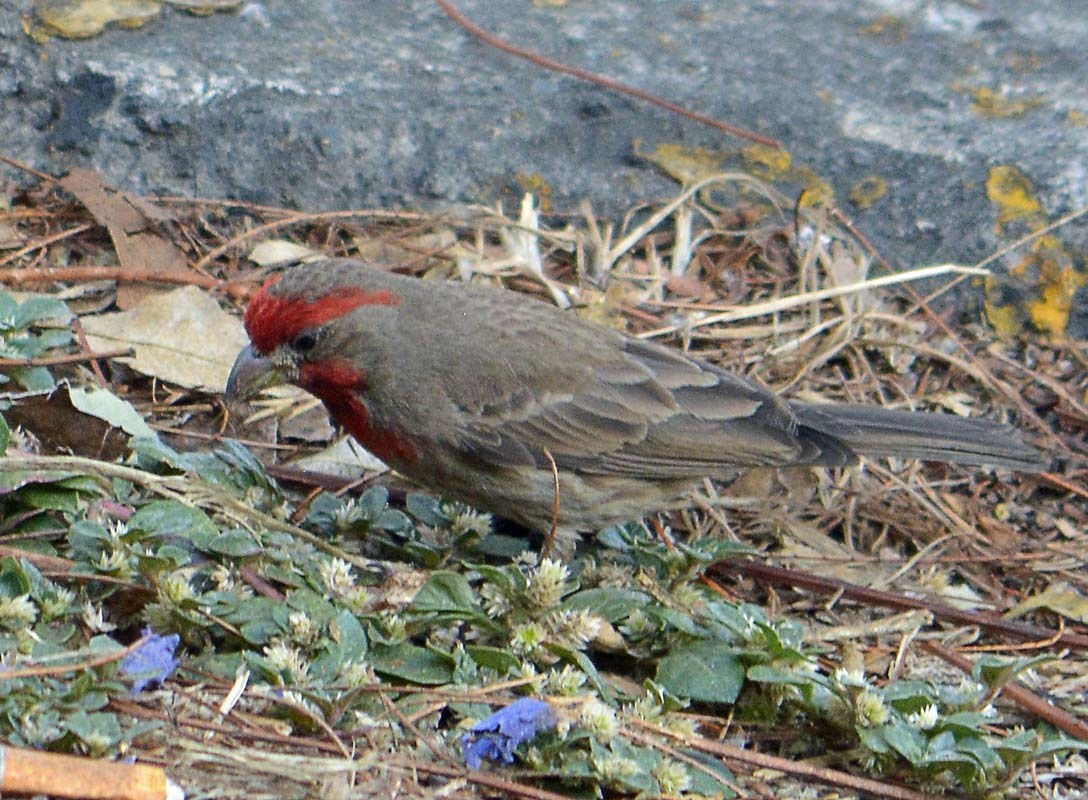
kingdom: Animalia
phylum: Chordata
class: Aves
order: Passeriformes
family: Fringillidae
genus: Haemorhous
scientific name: Haemorhous mexicanus
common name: House finch
